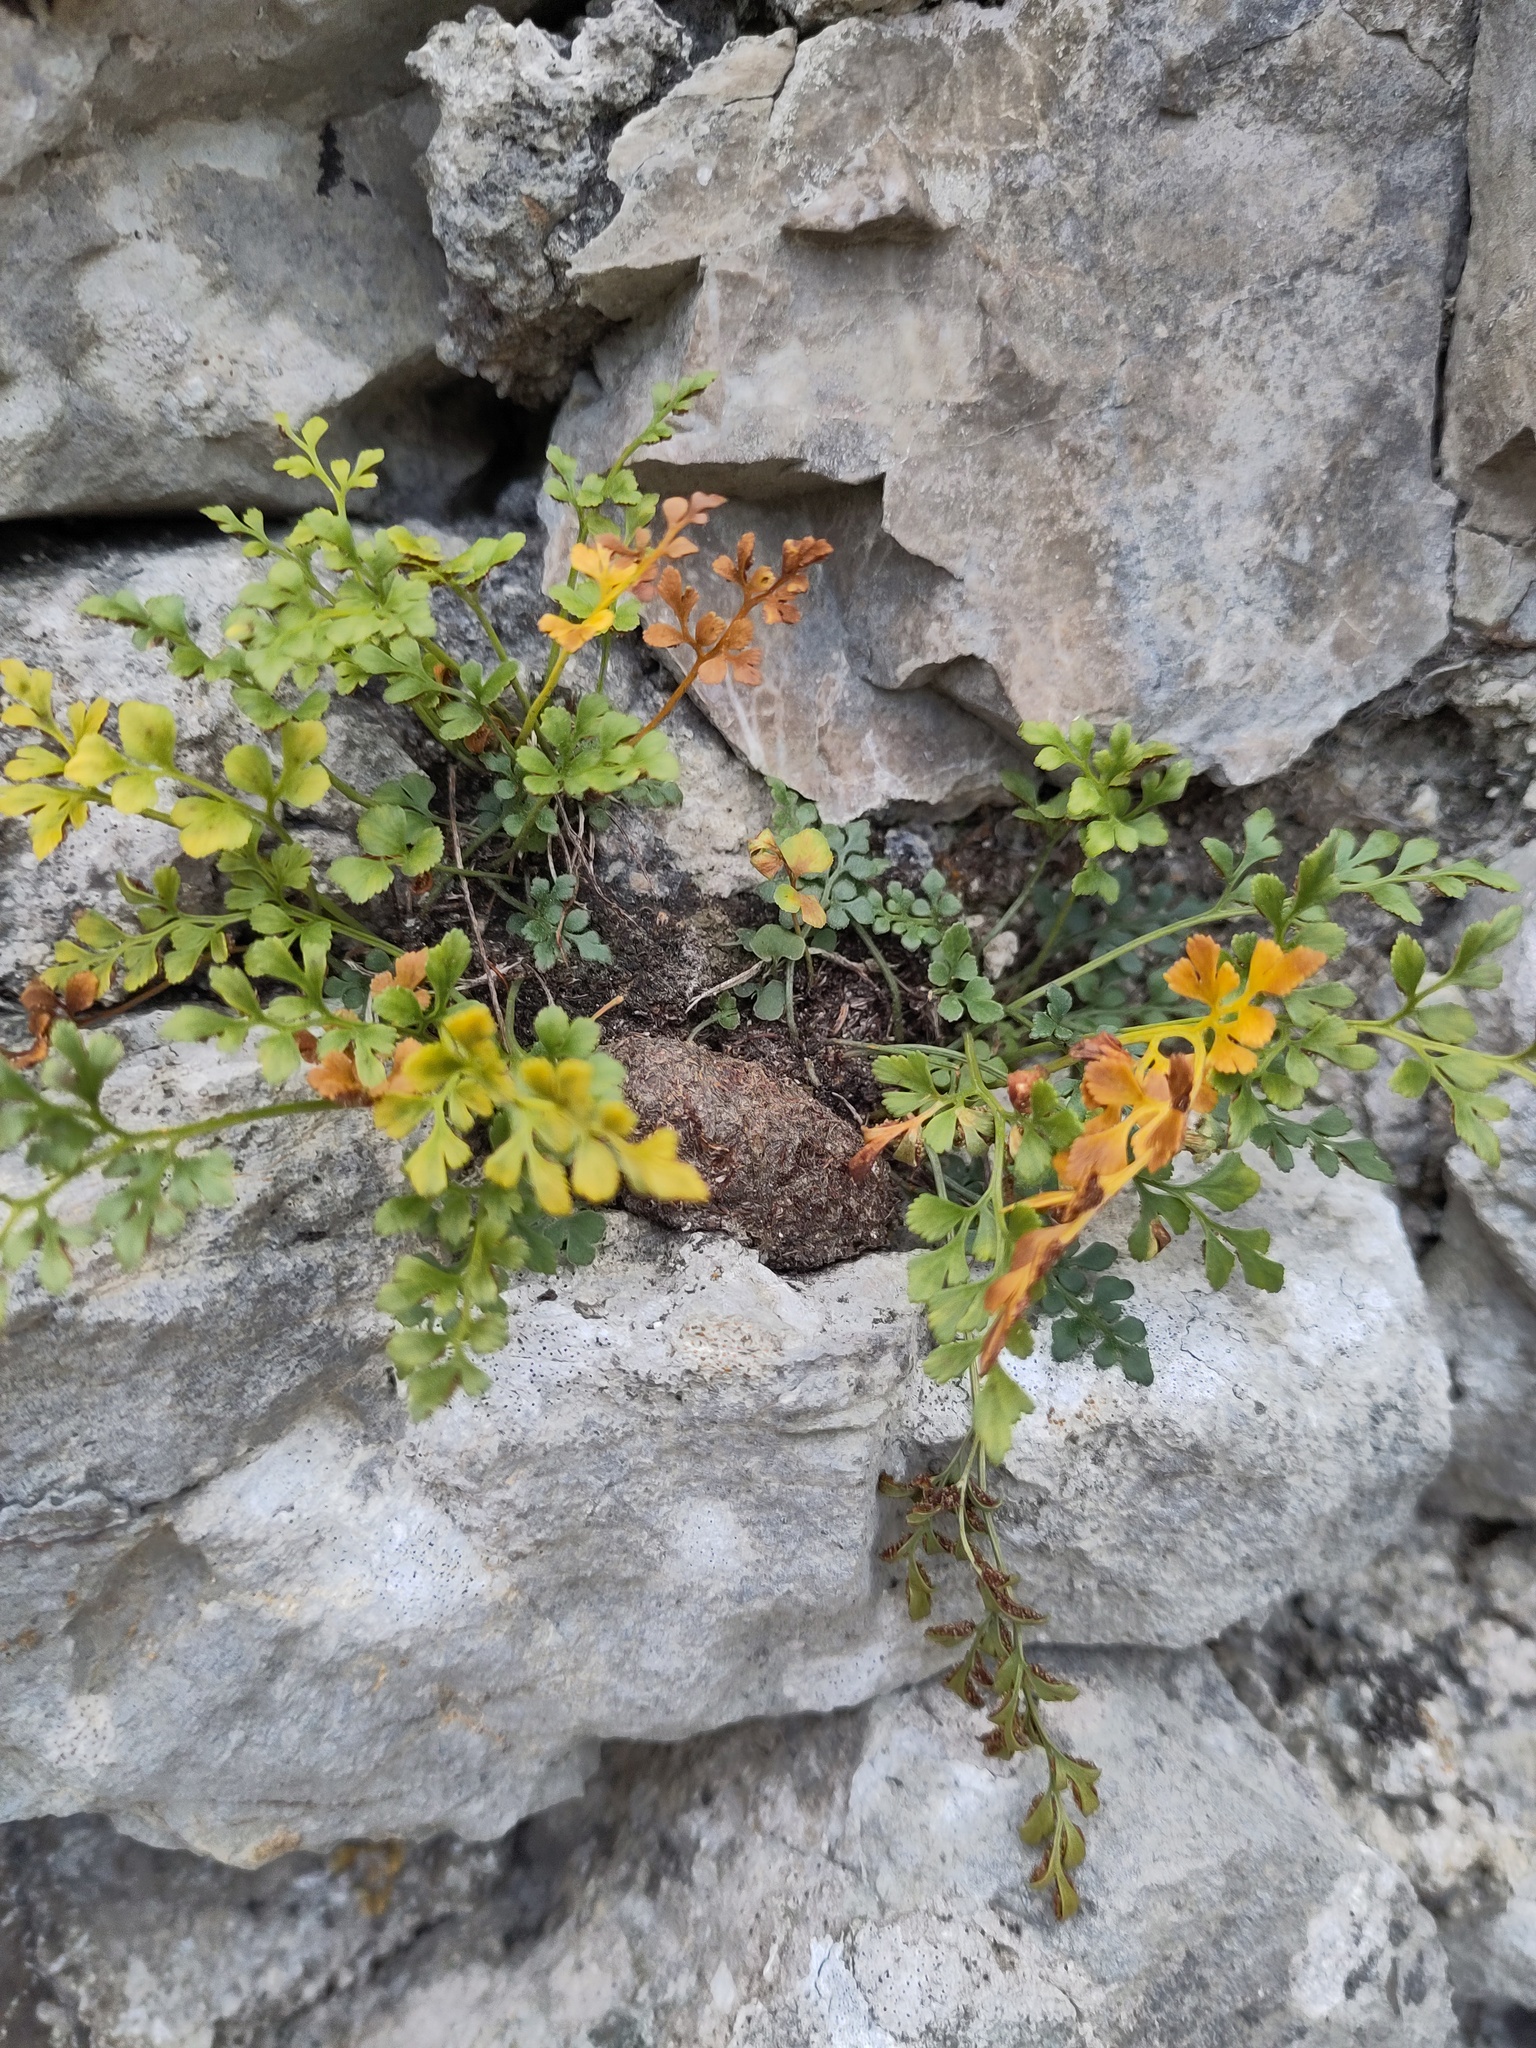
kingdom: Plantae
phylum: Tracheophyta
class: Polypodiopsida
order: Polypodiales
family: Aspleniaceae
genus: Asplenium
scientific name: Asplenium ruta-muraria
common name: Wall-rue
